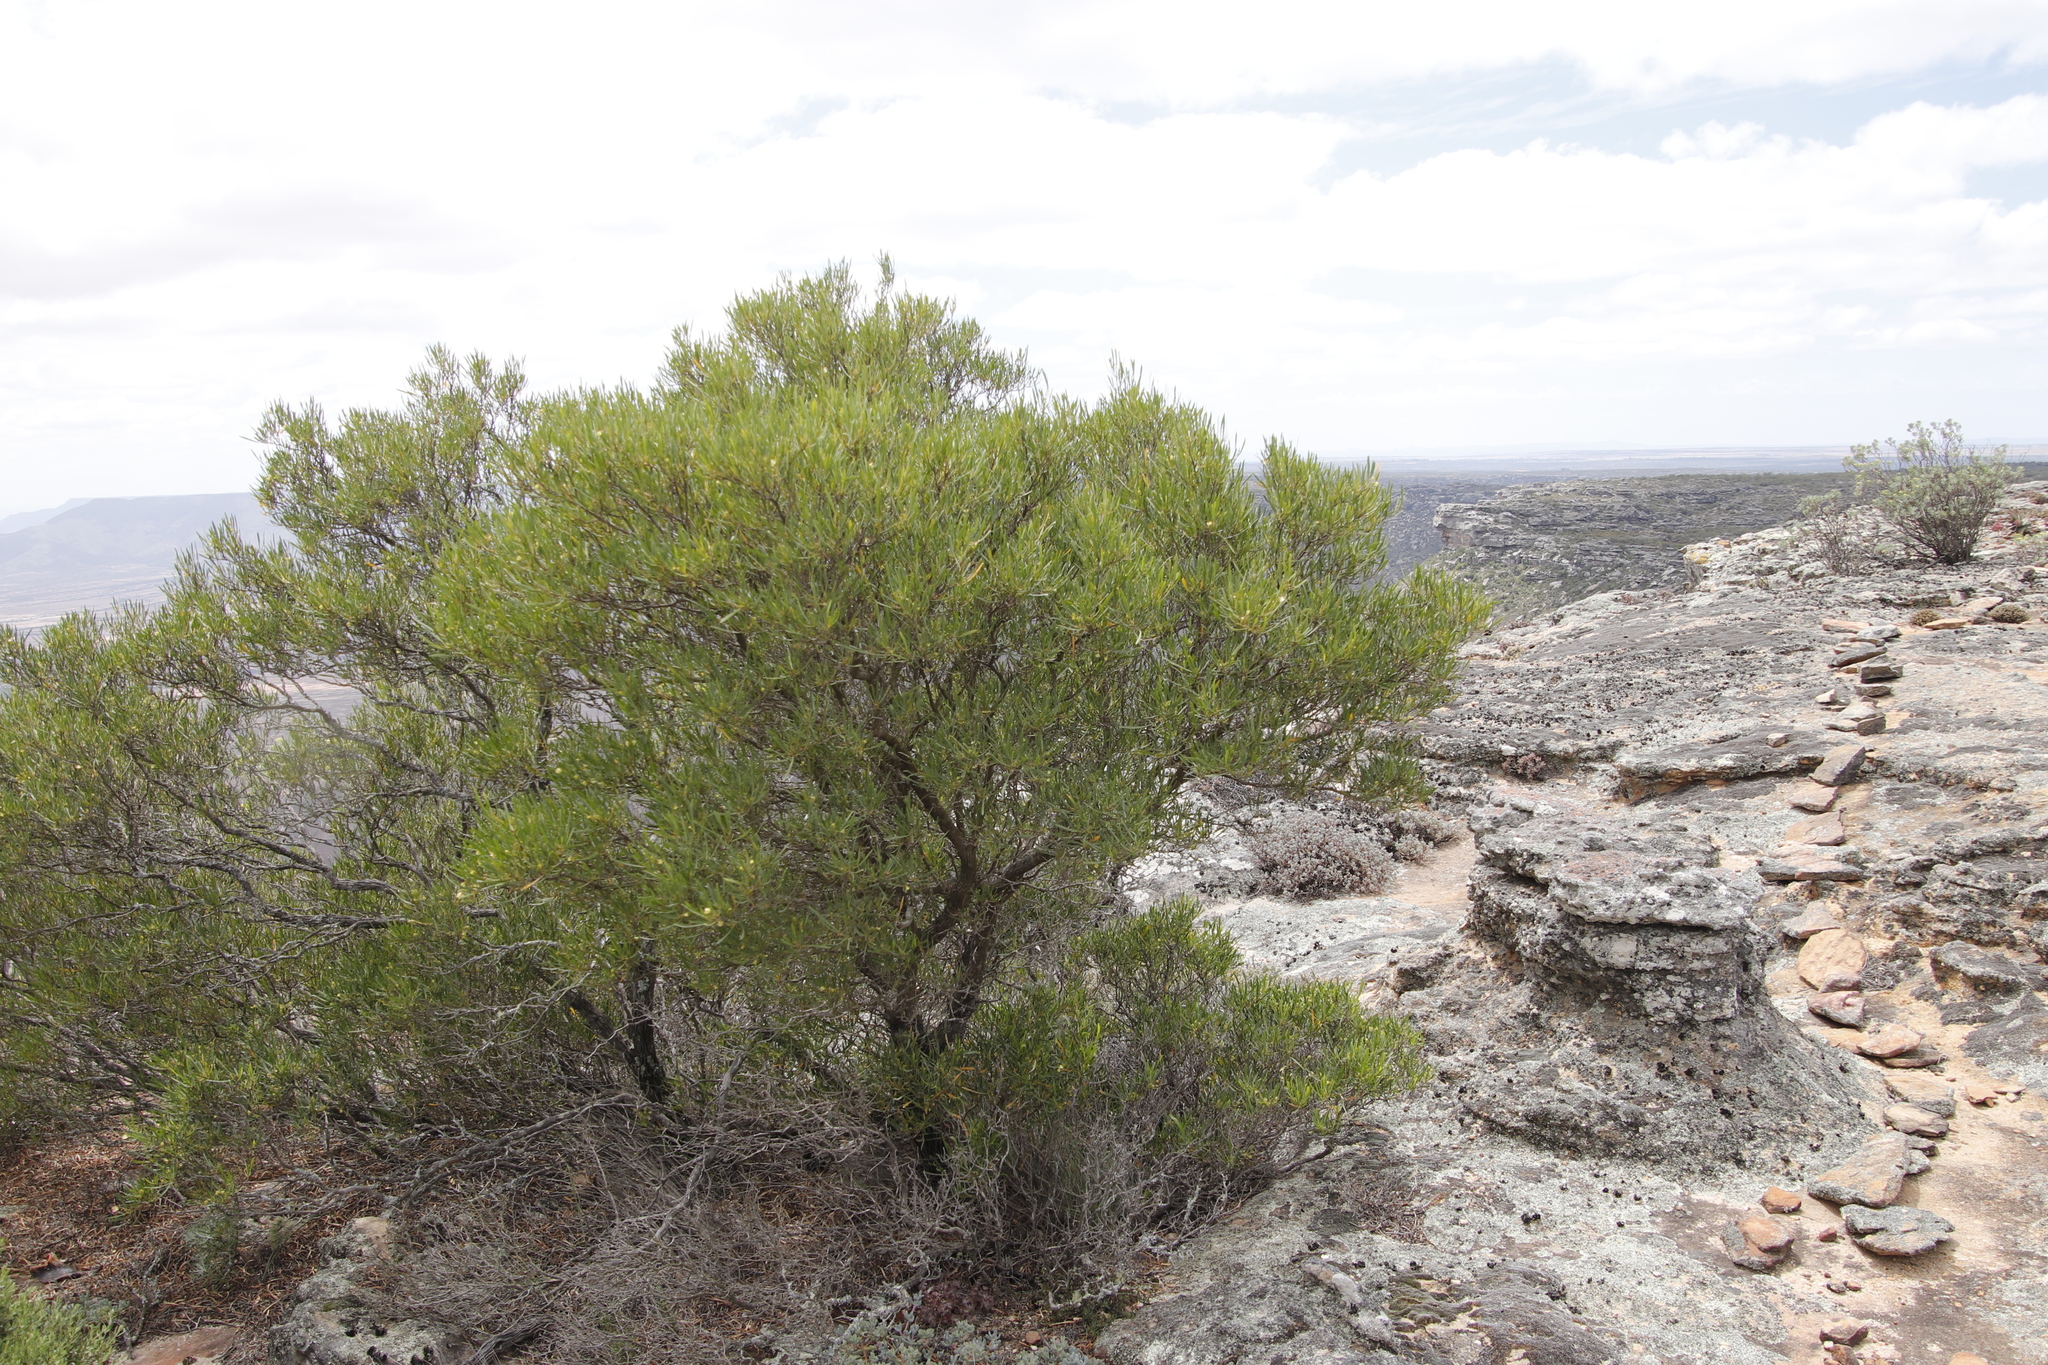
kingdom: Plantae
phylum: Tracheophyta
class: Magnoliopsida
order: Sapindales
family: Sapindaceae
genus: Dodonaea
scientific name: Dodonaea viscosa
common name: Hopbush
